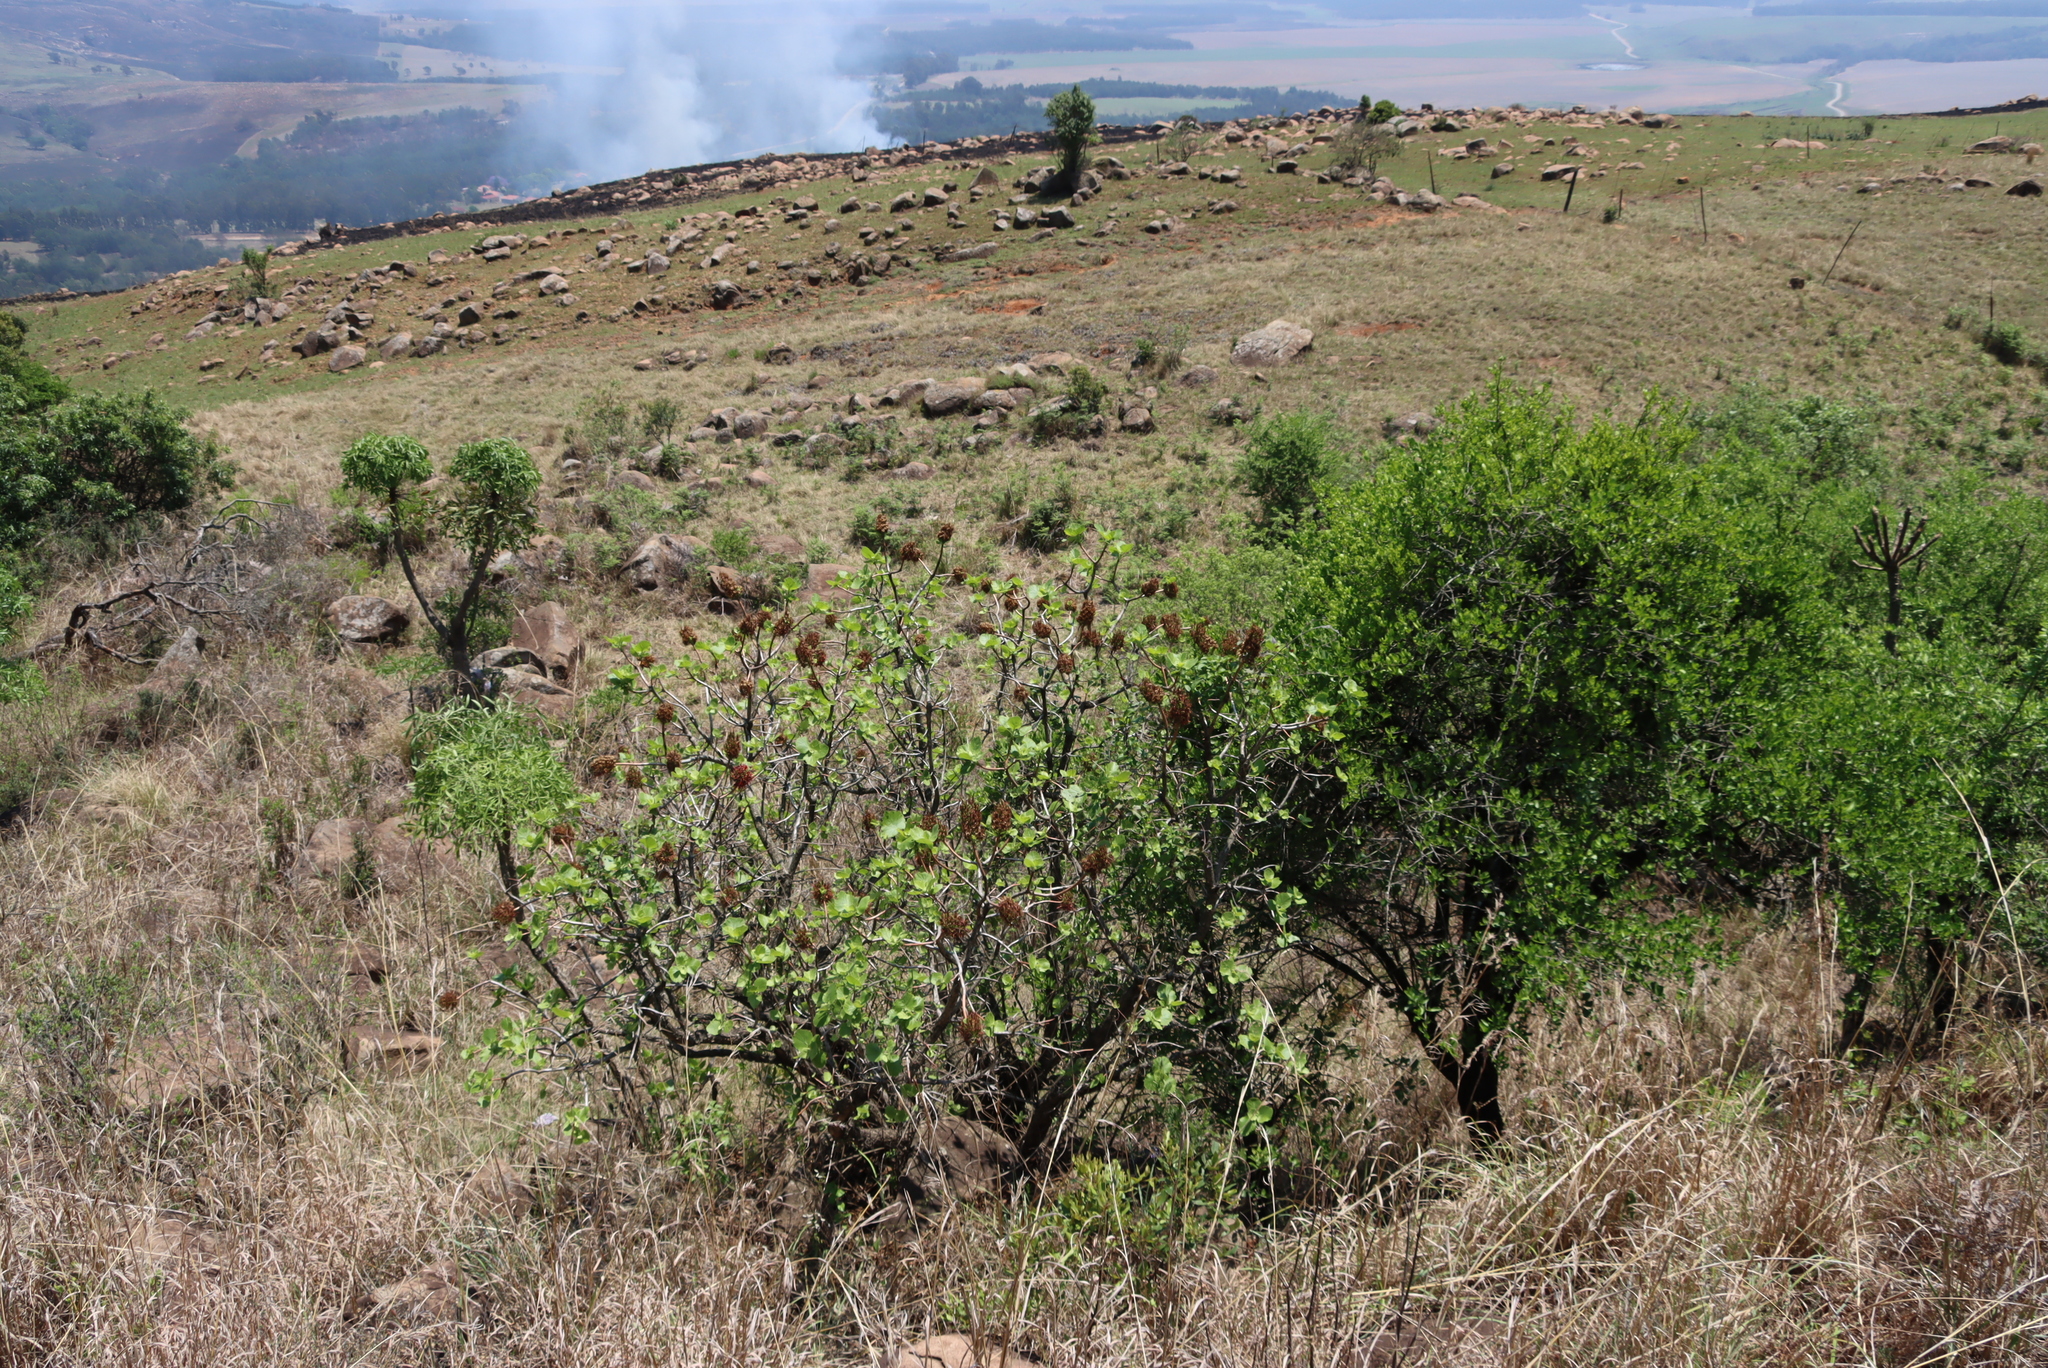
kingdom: Plantae
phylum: Tracheophyta
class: Magnoliopsida
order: Geraniales
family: Francoaceae
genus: Greyia
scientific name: Greyia sutherlandii
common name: Glossy bottlebrush
